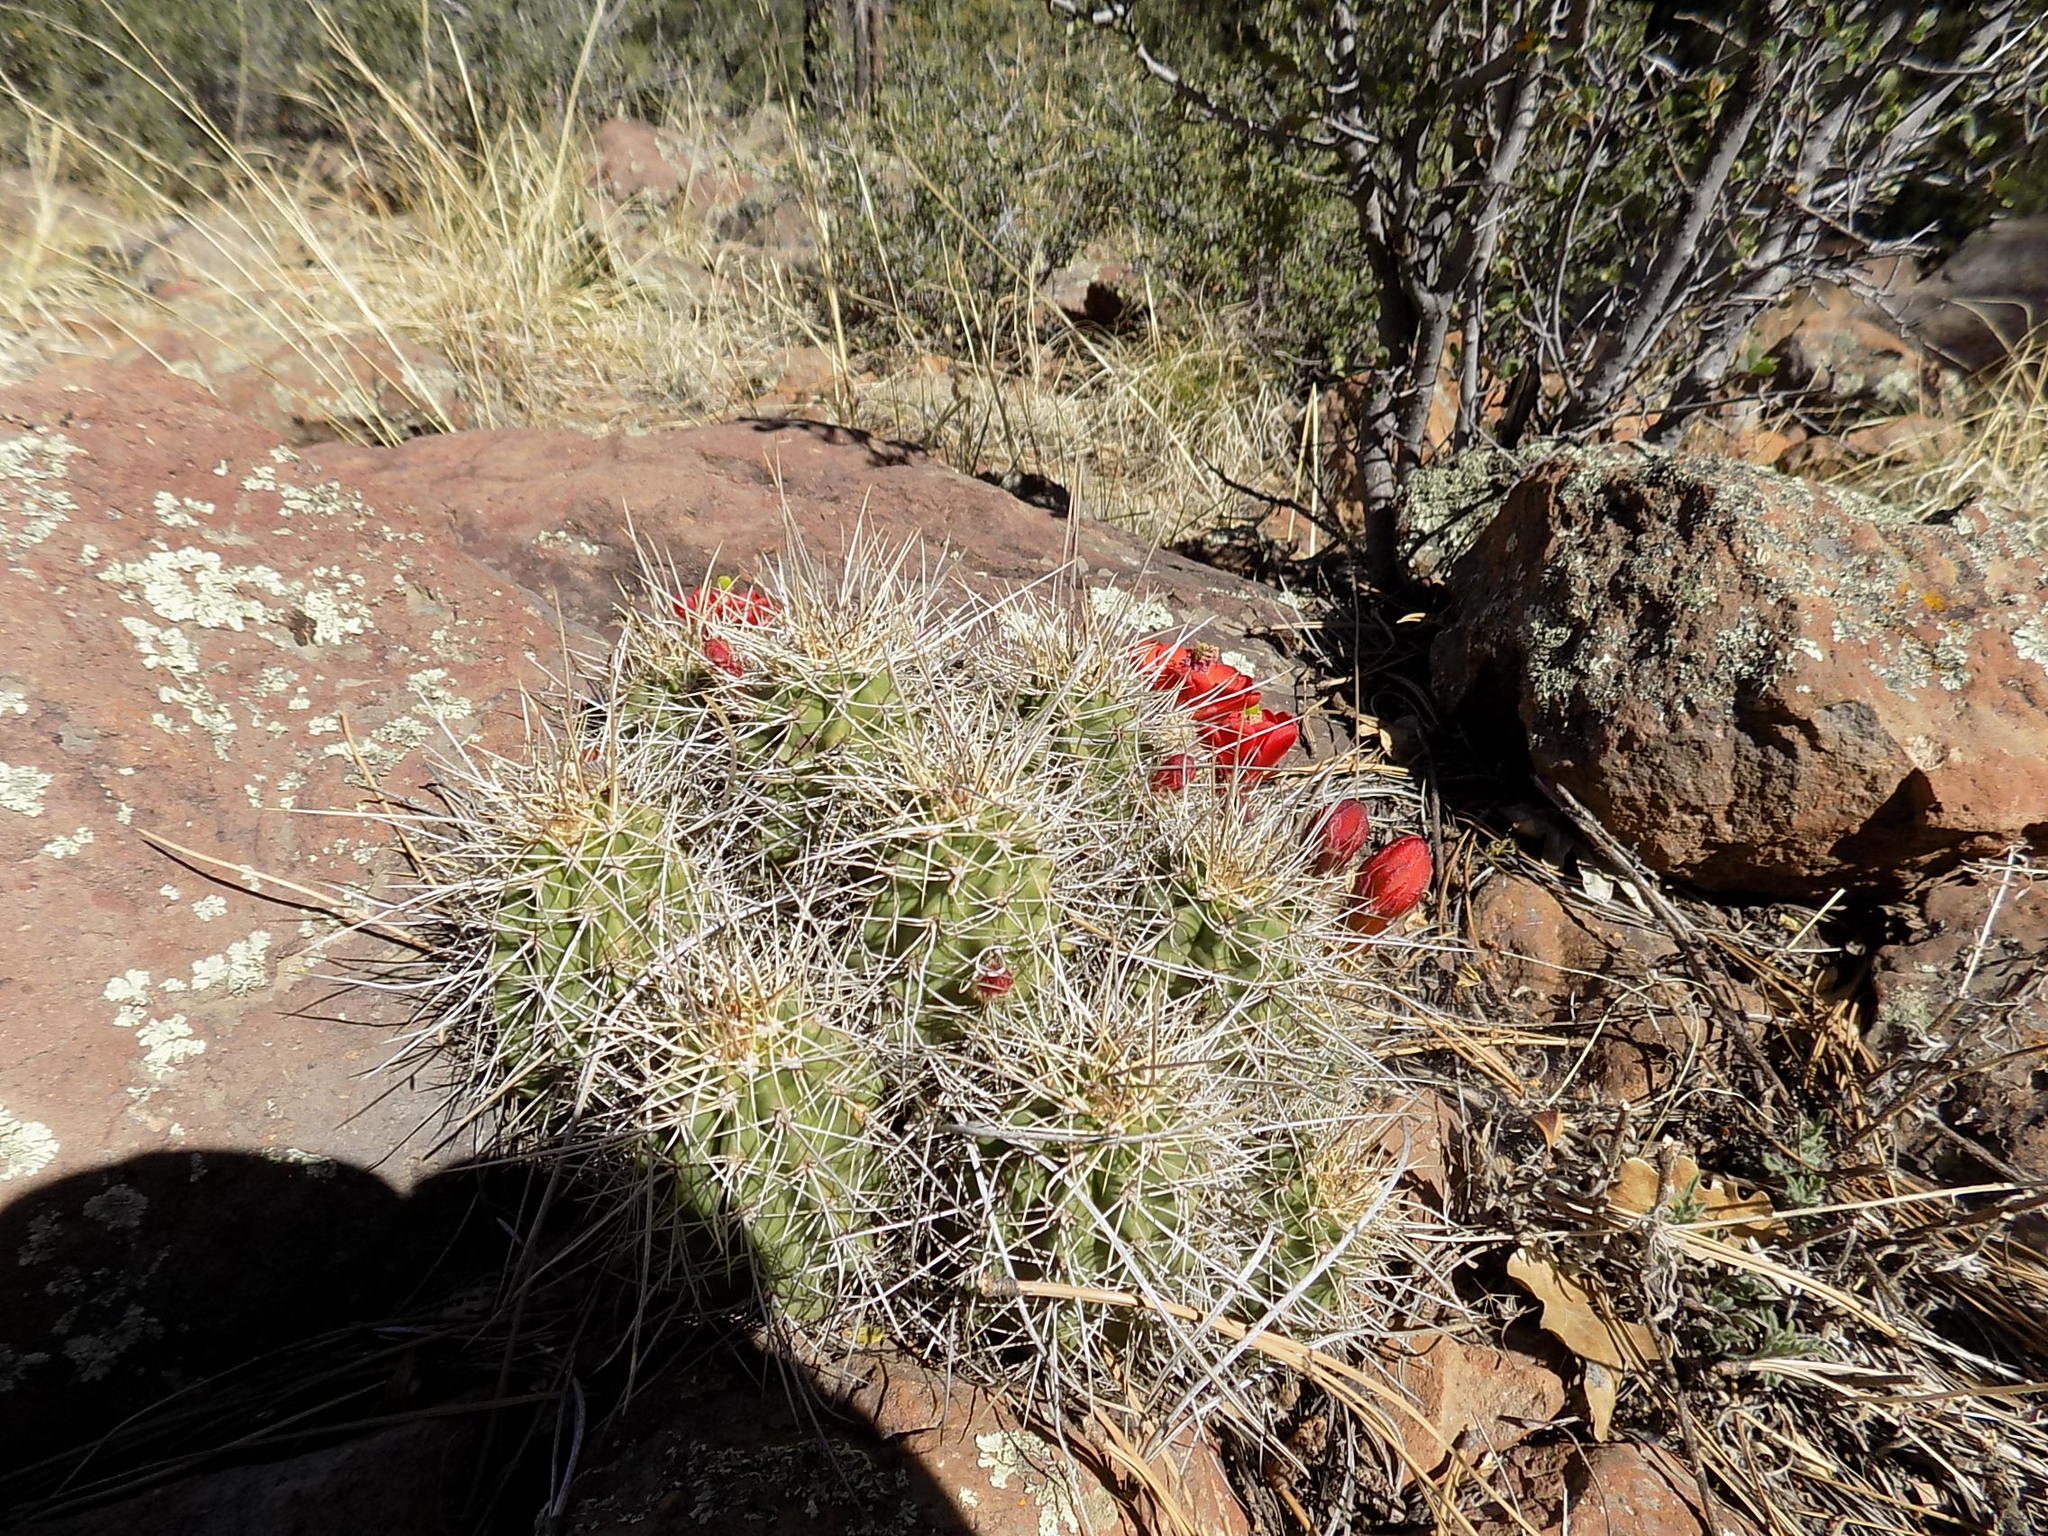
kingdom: Plantae
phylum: Tracheophyta
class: Magnoliopsida
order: Caryophyllales
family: Cactaceae
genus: Echinocereus
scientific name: Echinocereus bakeri
